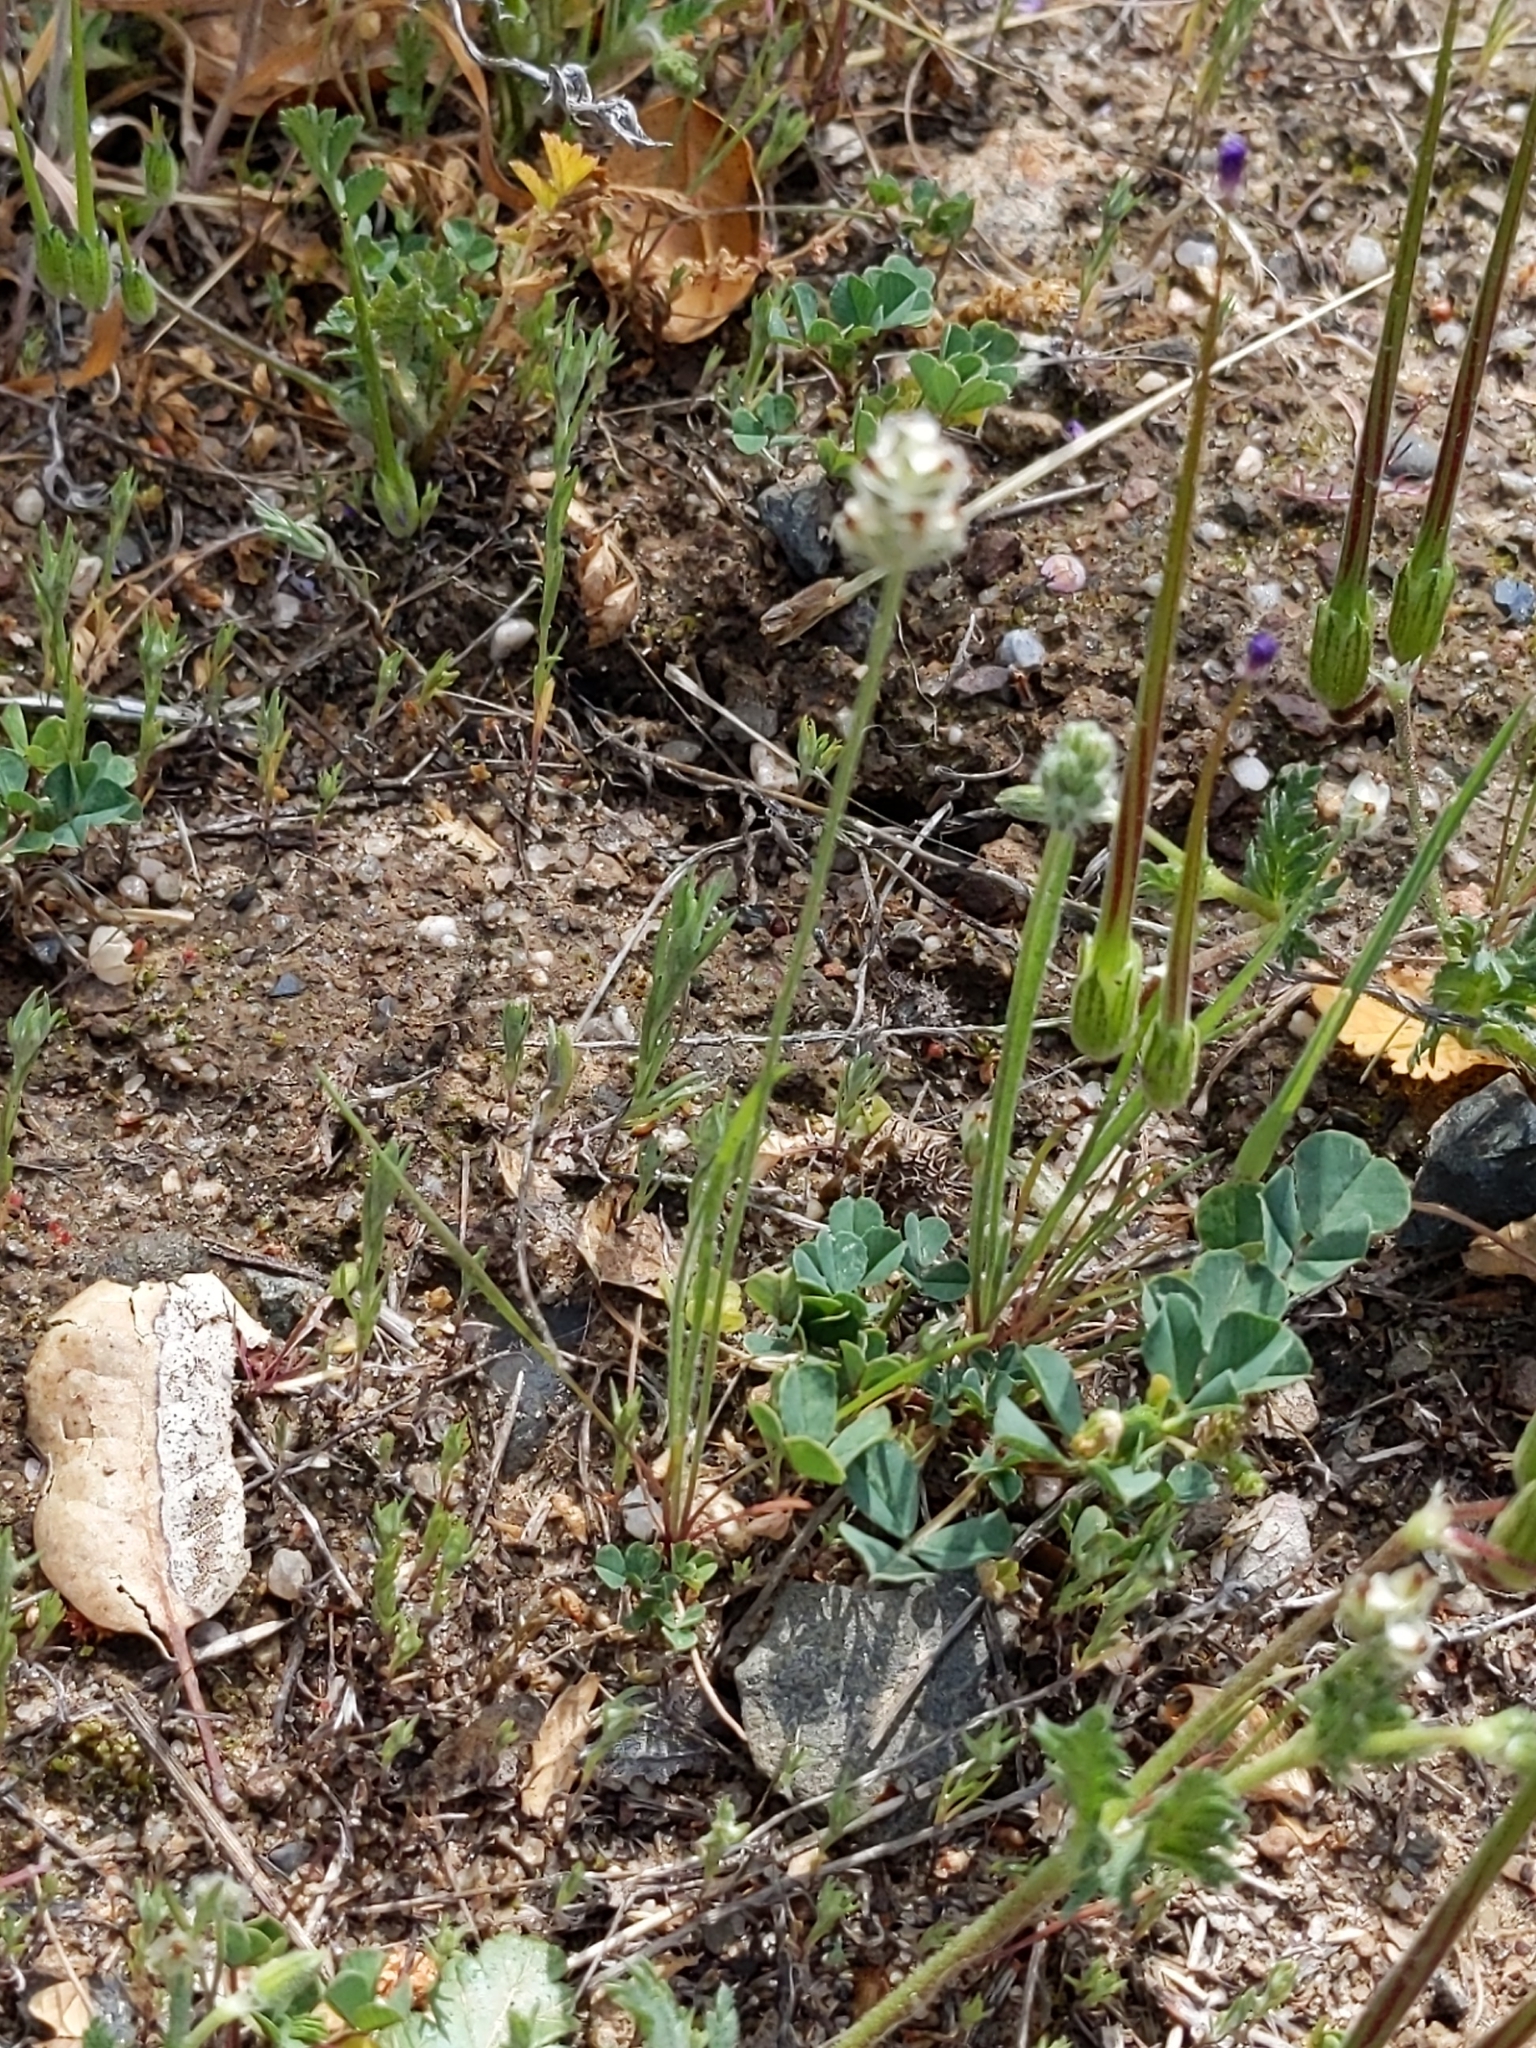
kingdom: Plantae
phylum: Tracheophyta
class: Magnoliopsida
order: Lamiales
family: Plantaginaceae
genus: Plantago
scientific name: Plantago erecta
